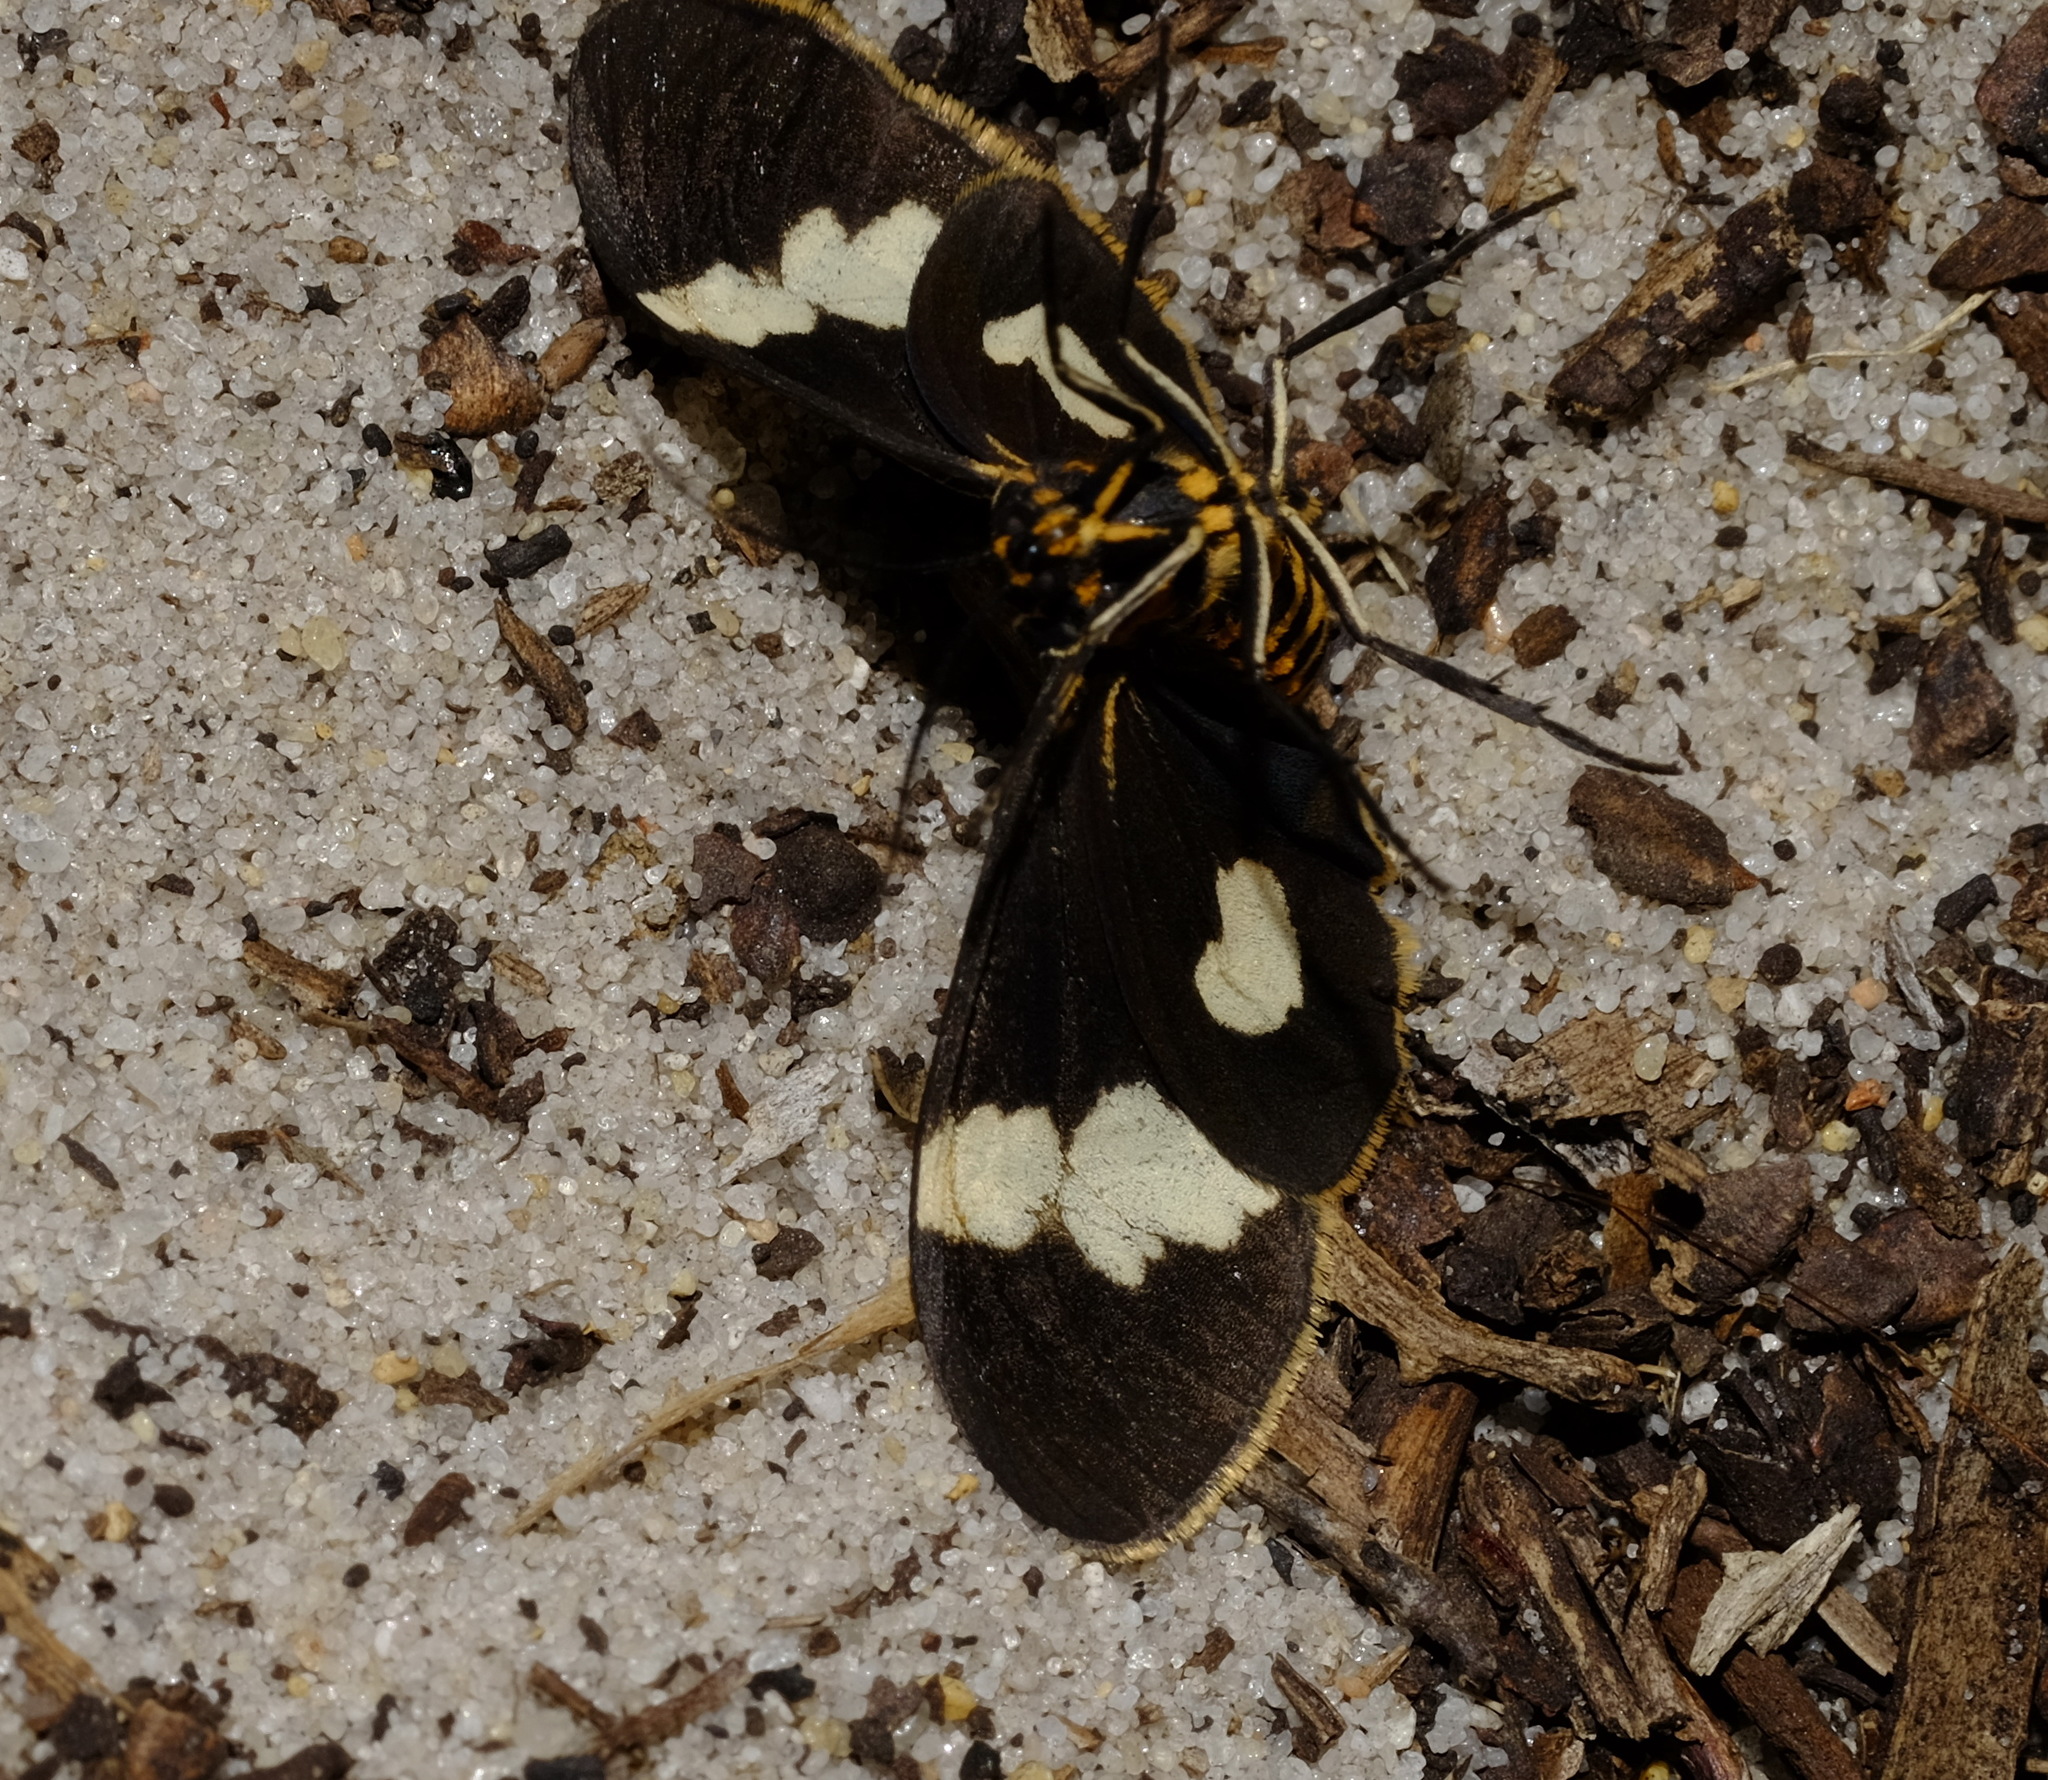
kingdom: Animalia
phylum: Arthropoda
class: Insecta
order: Lepidoptera
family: Erebidae
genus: Nyctemera
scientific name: Nyctemera amicus
